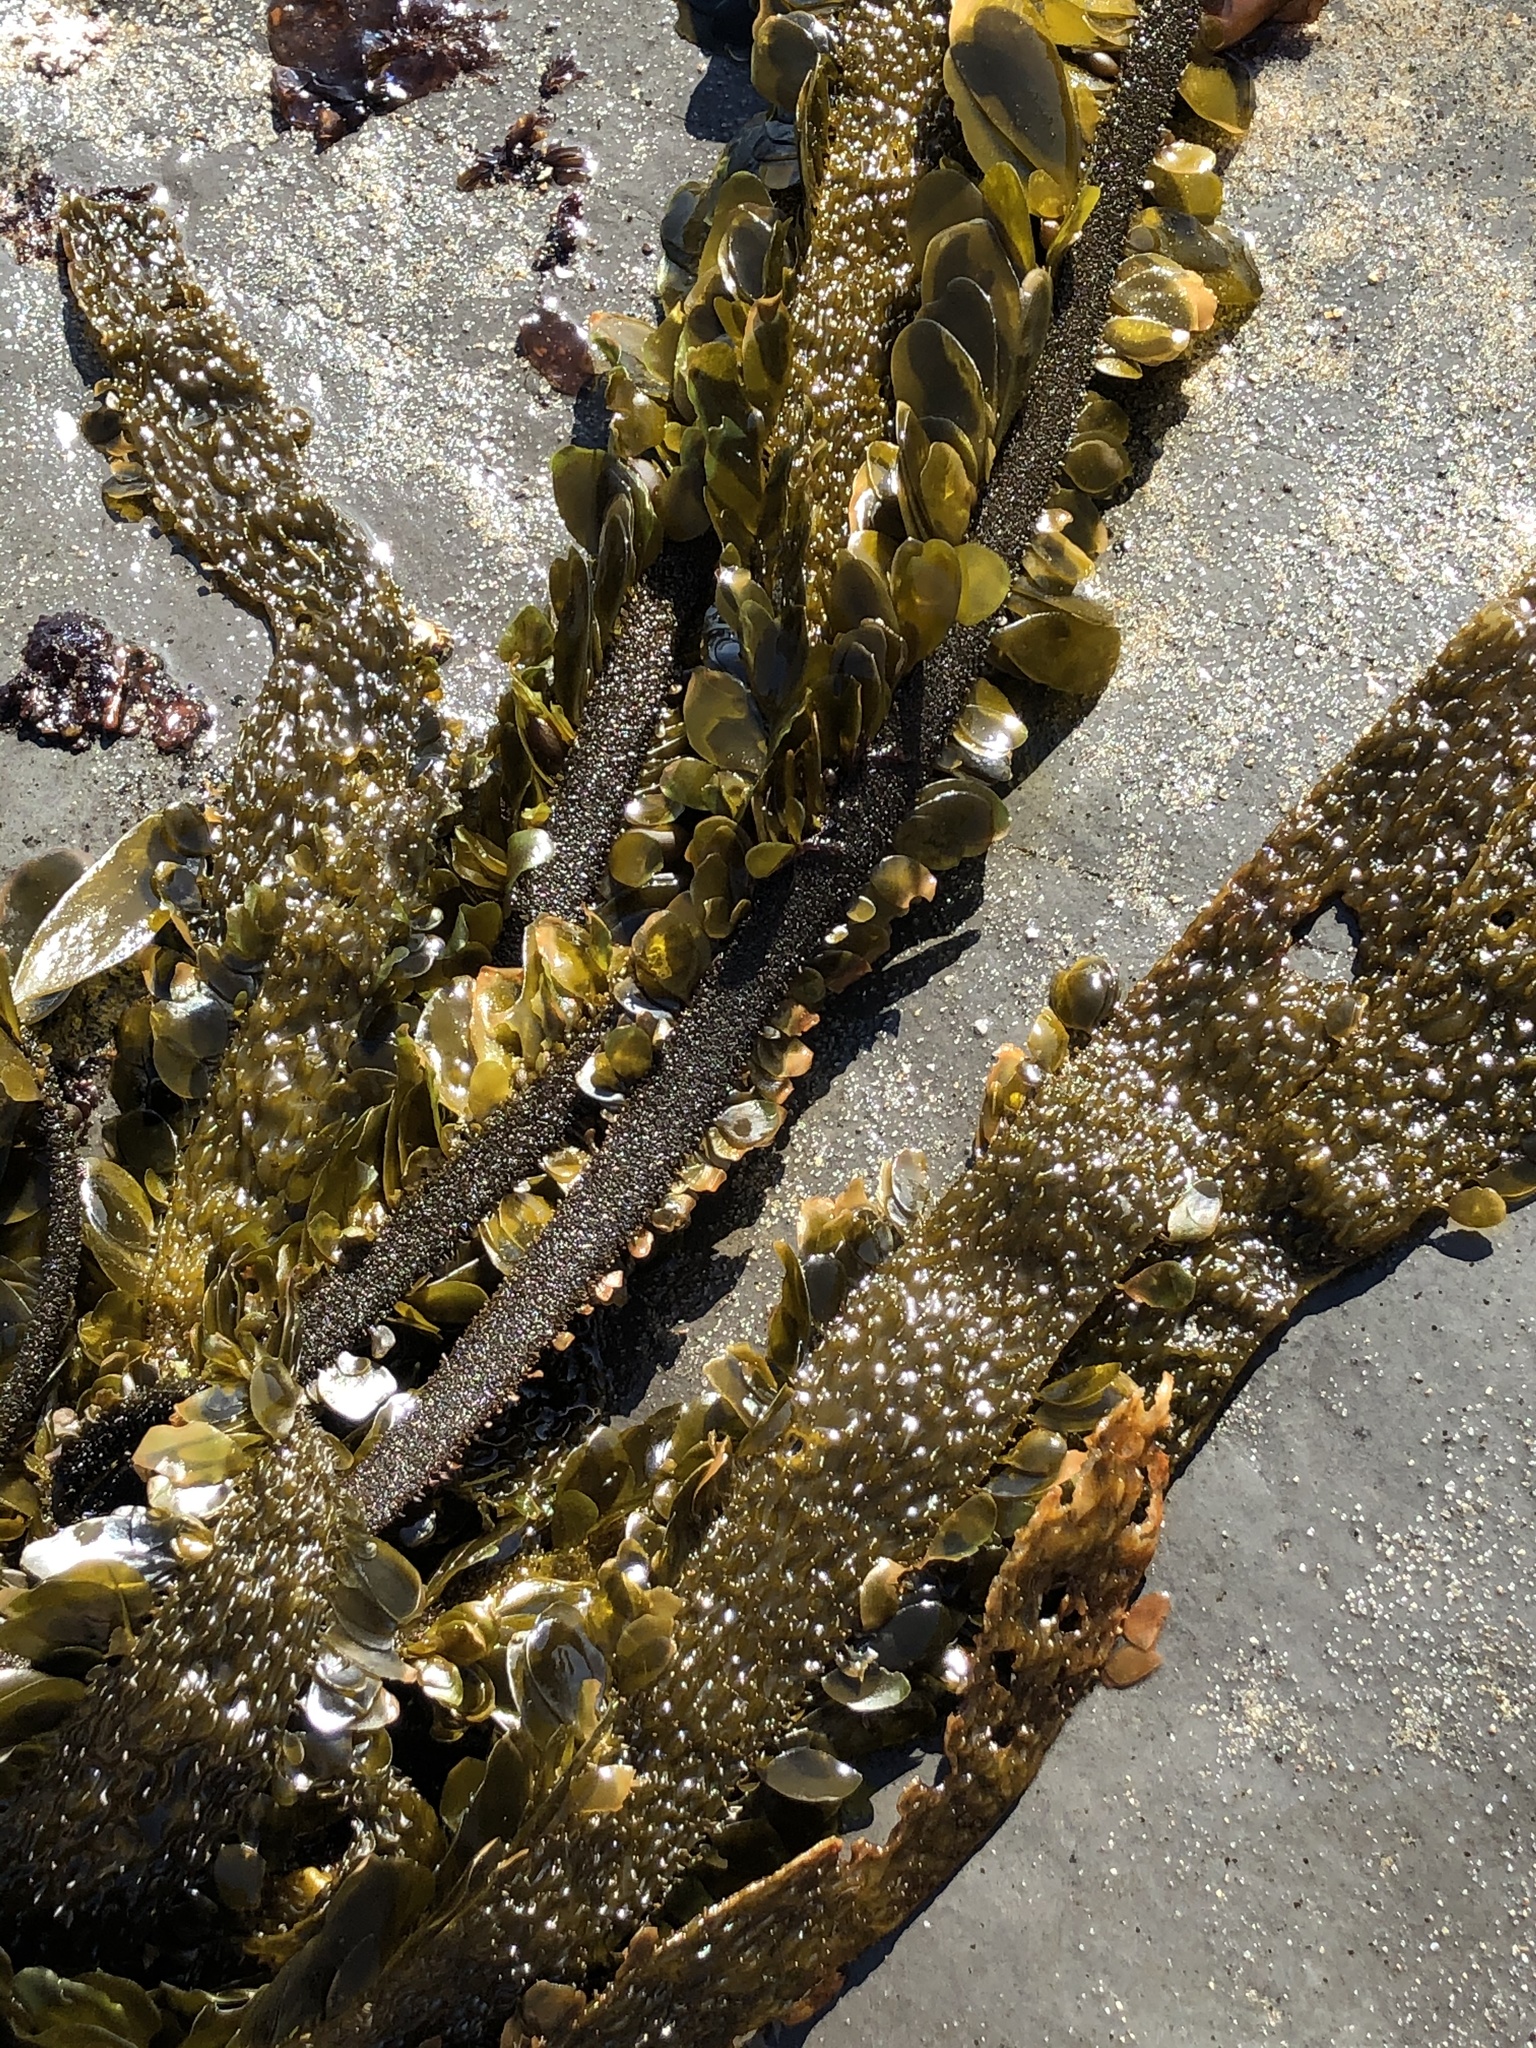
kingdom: Chromista
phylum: Ochrophyta
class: Phaeophyceae
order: Laminariales
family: Lessoniaceae
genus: Egregia
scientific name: Egregia menziesii
